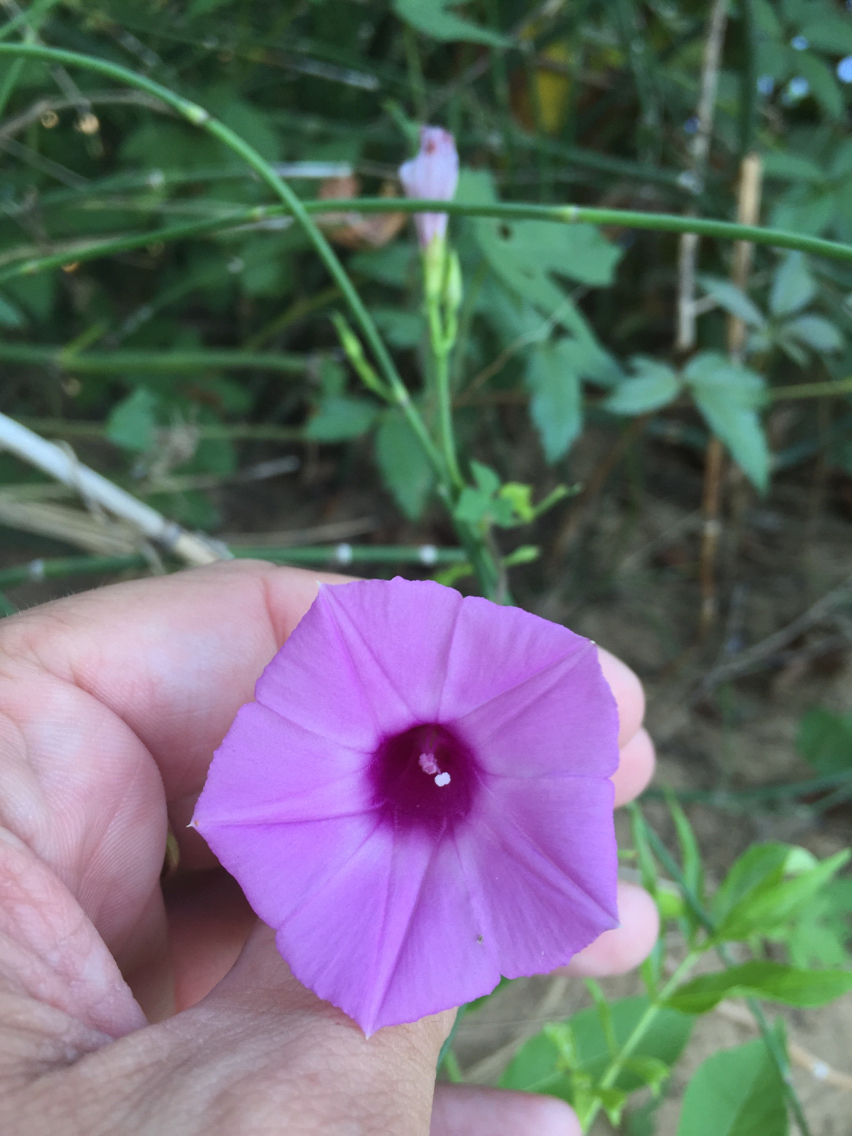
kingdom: Plantae
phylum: Tracheophyta
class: Magnoliopsida
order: Solanales
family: Convolvulaceae
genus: Ipomoea
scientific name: Ipomoea cordatotriloba
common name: Cotton morning glory
